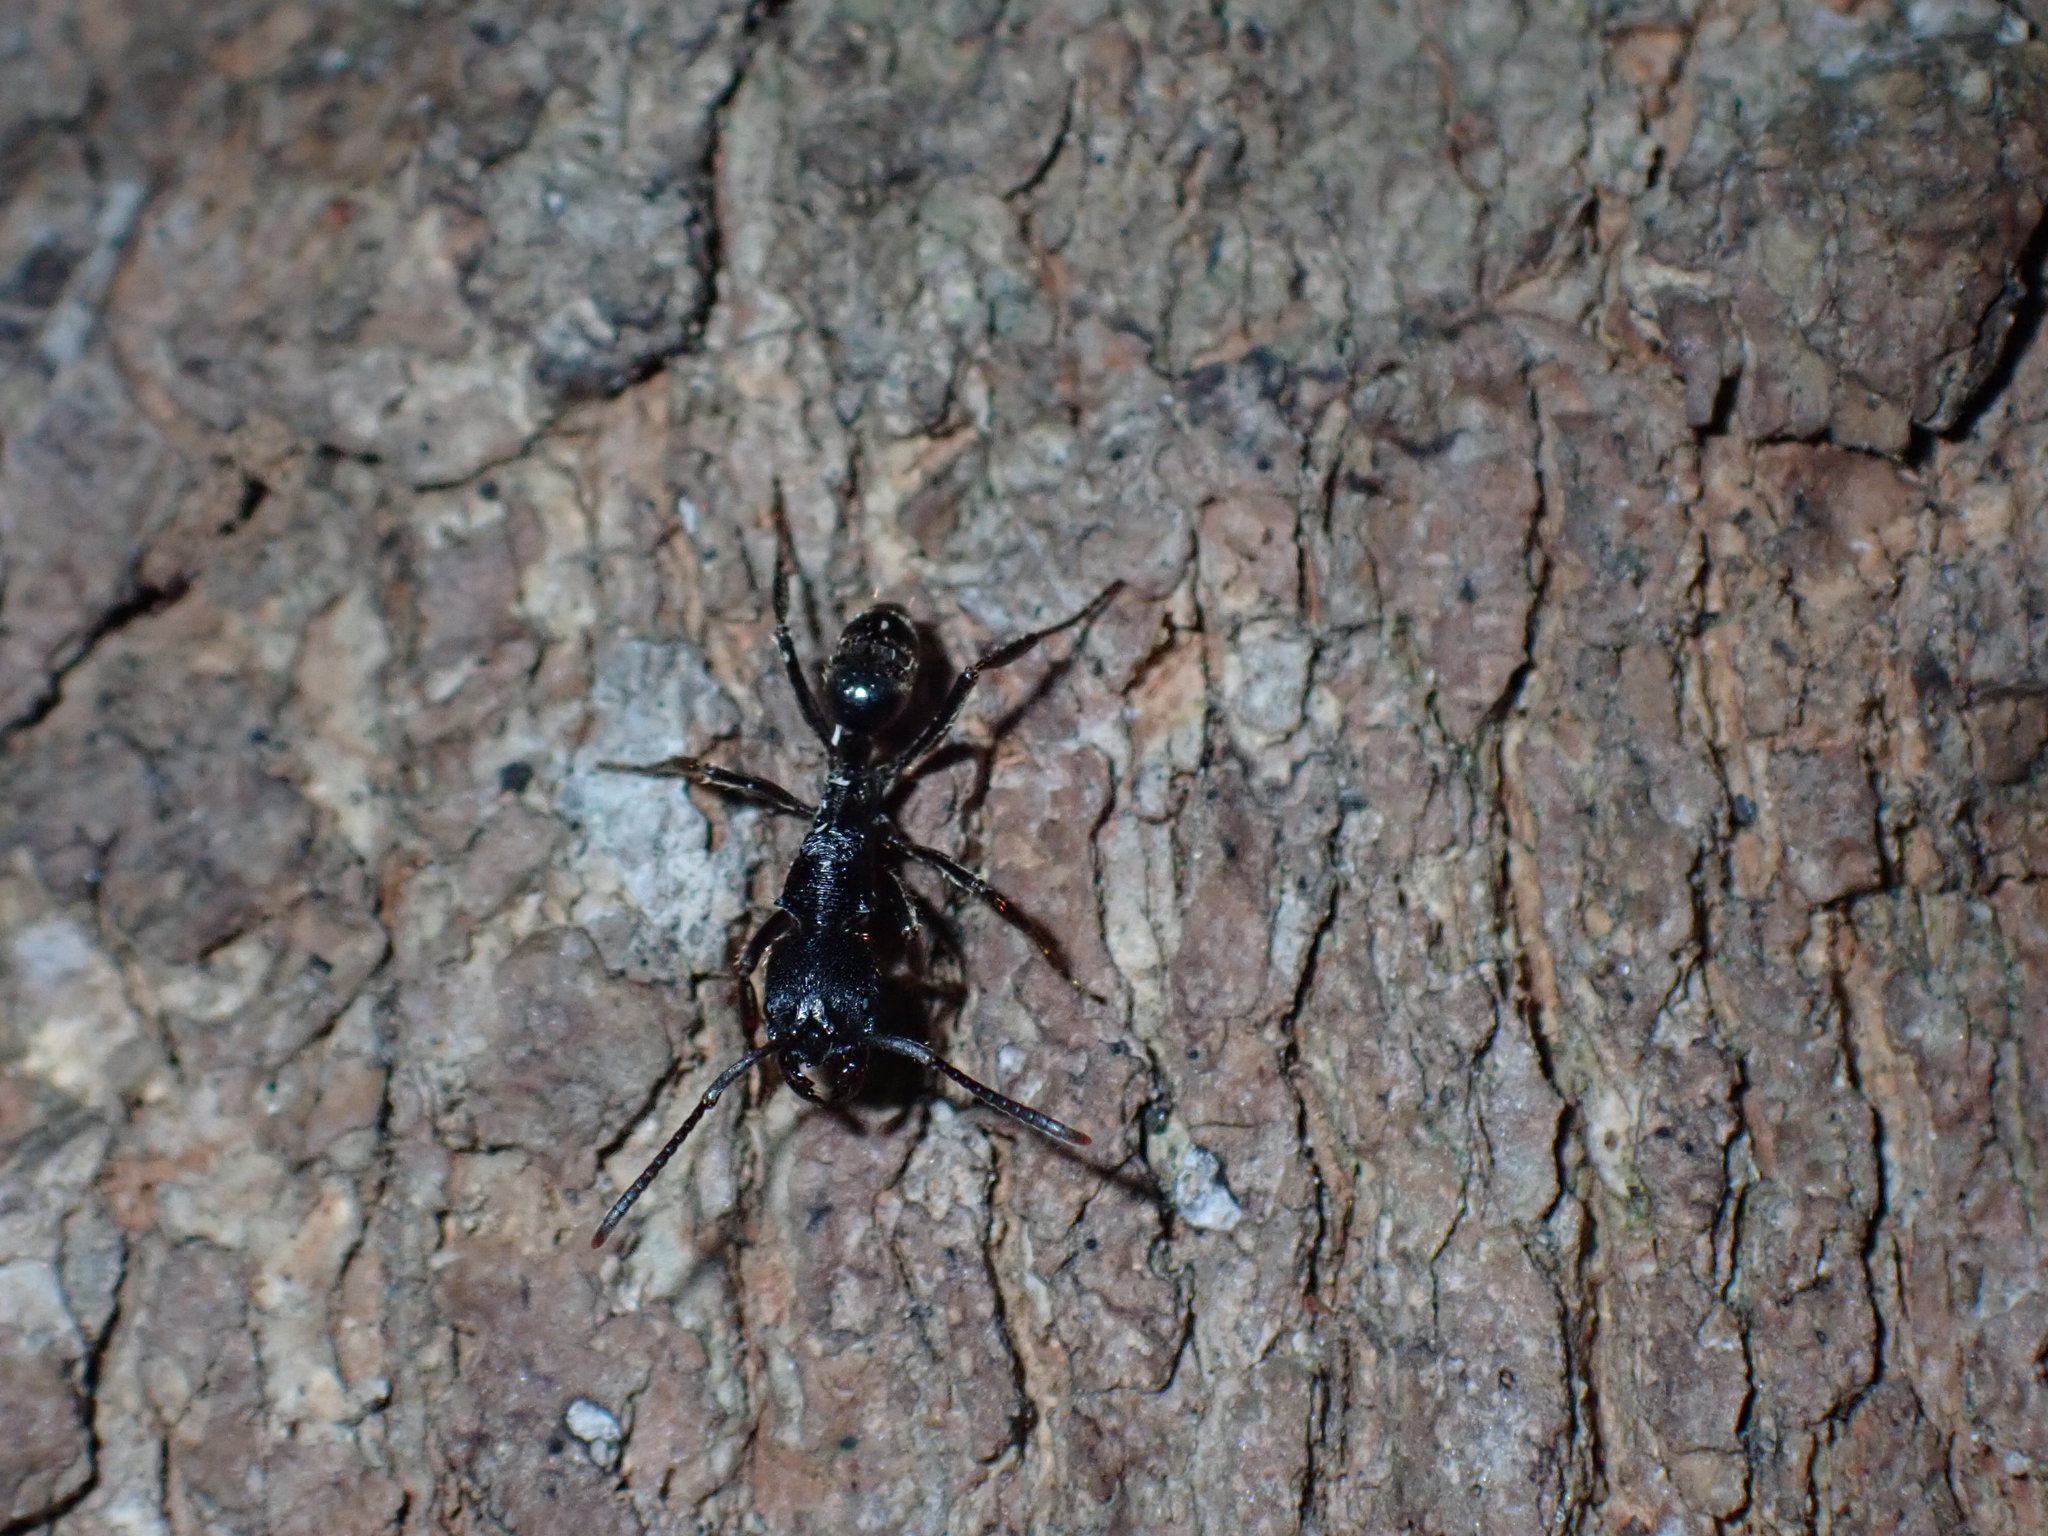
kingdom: Animalia
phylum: Arthropoda
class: Insecta
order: Hymenoptera
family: Formicidae
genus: Odontoponera
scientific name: Odontoponera denticulata
